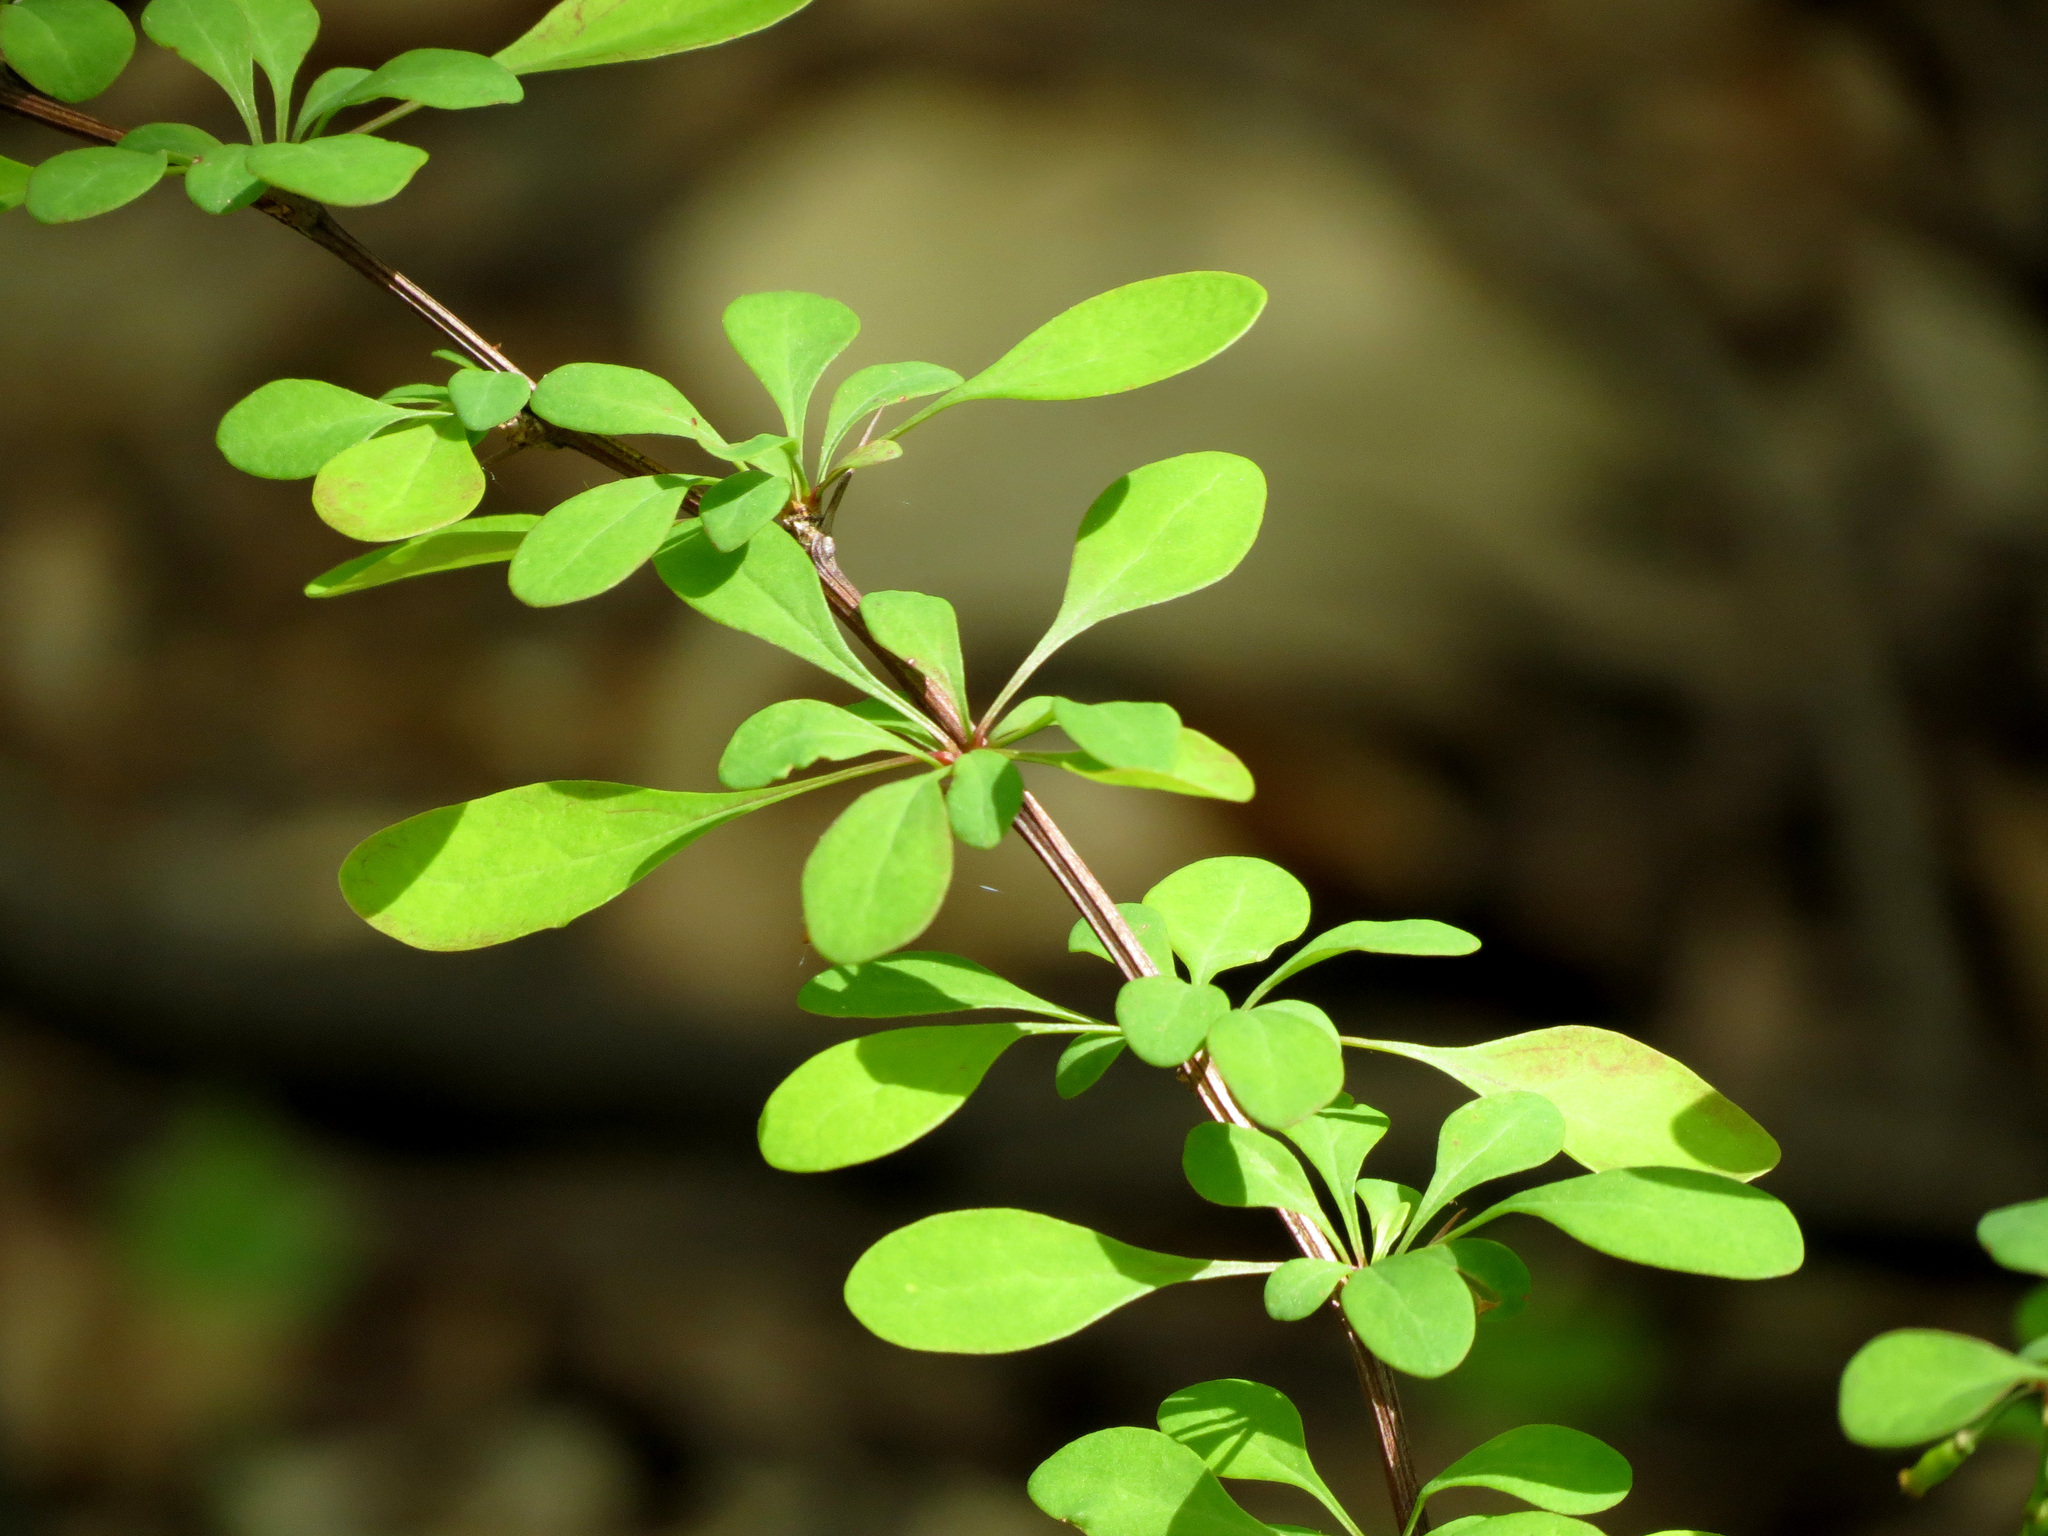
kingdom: Plantae
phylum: Tracheophyta
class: Magnoliopsida
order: Ranunculales
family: Berberidaceae
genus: Berberis
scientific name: Berberis thunbergii
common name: Japanese barberry
